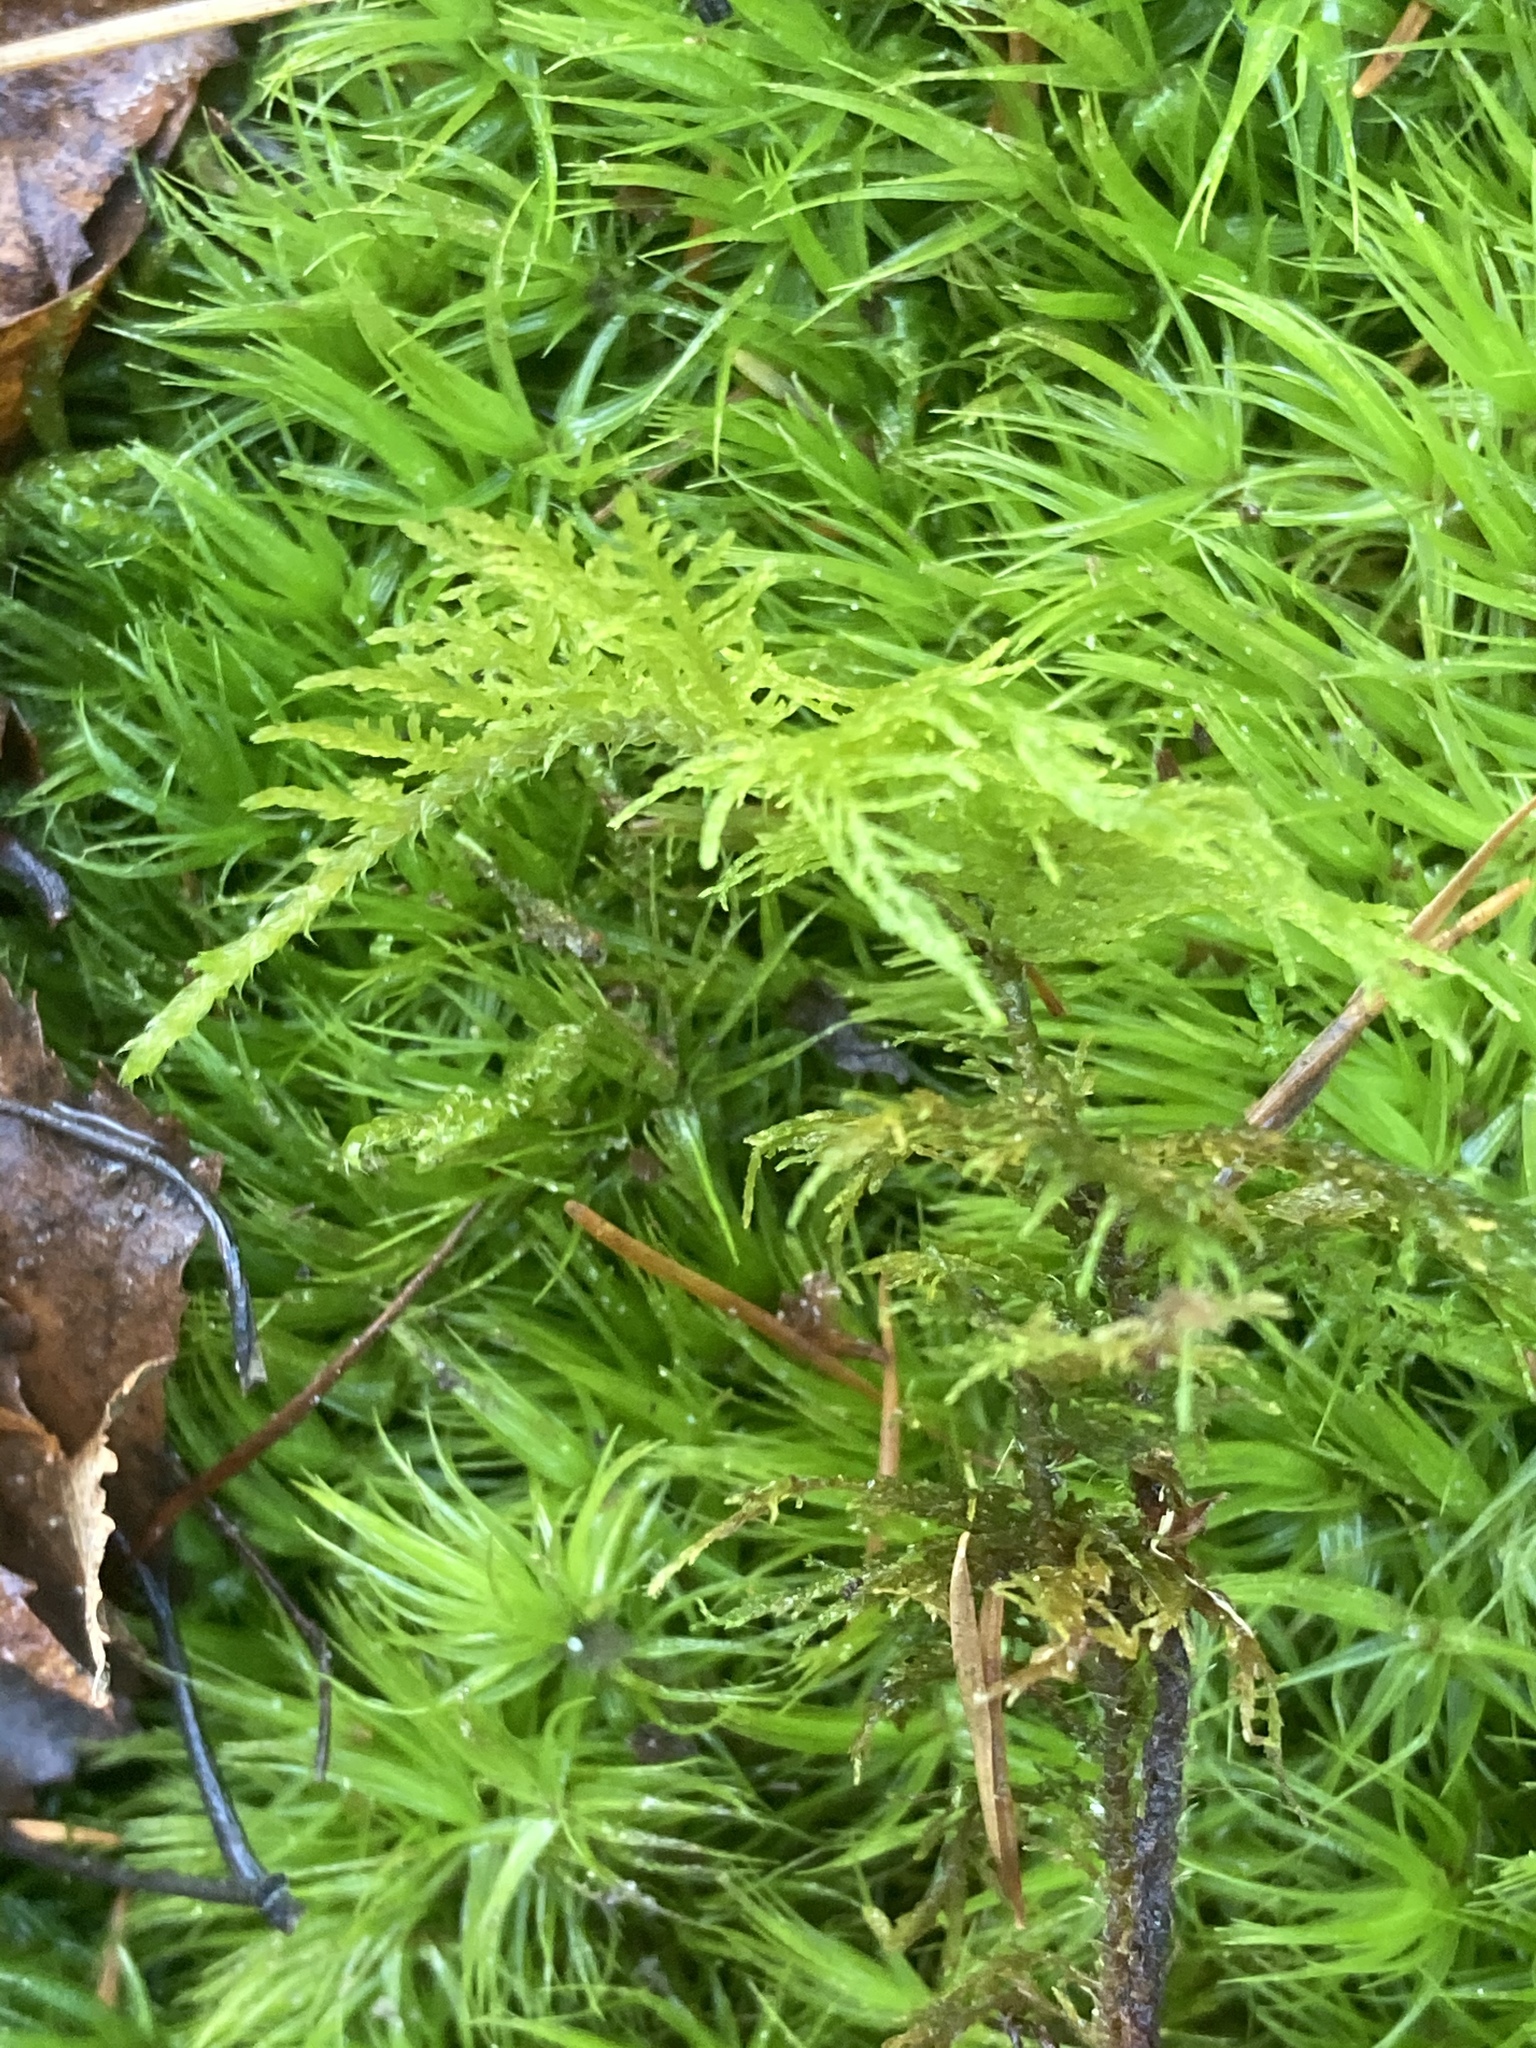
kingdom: Plantae
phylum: Bryophyta
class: Bryopsida
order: Hypnales
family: Hylocomiaceae
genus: Hylocomium
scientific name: Hylocomium splendens
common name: Stairstep moss
